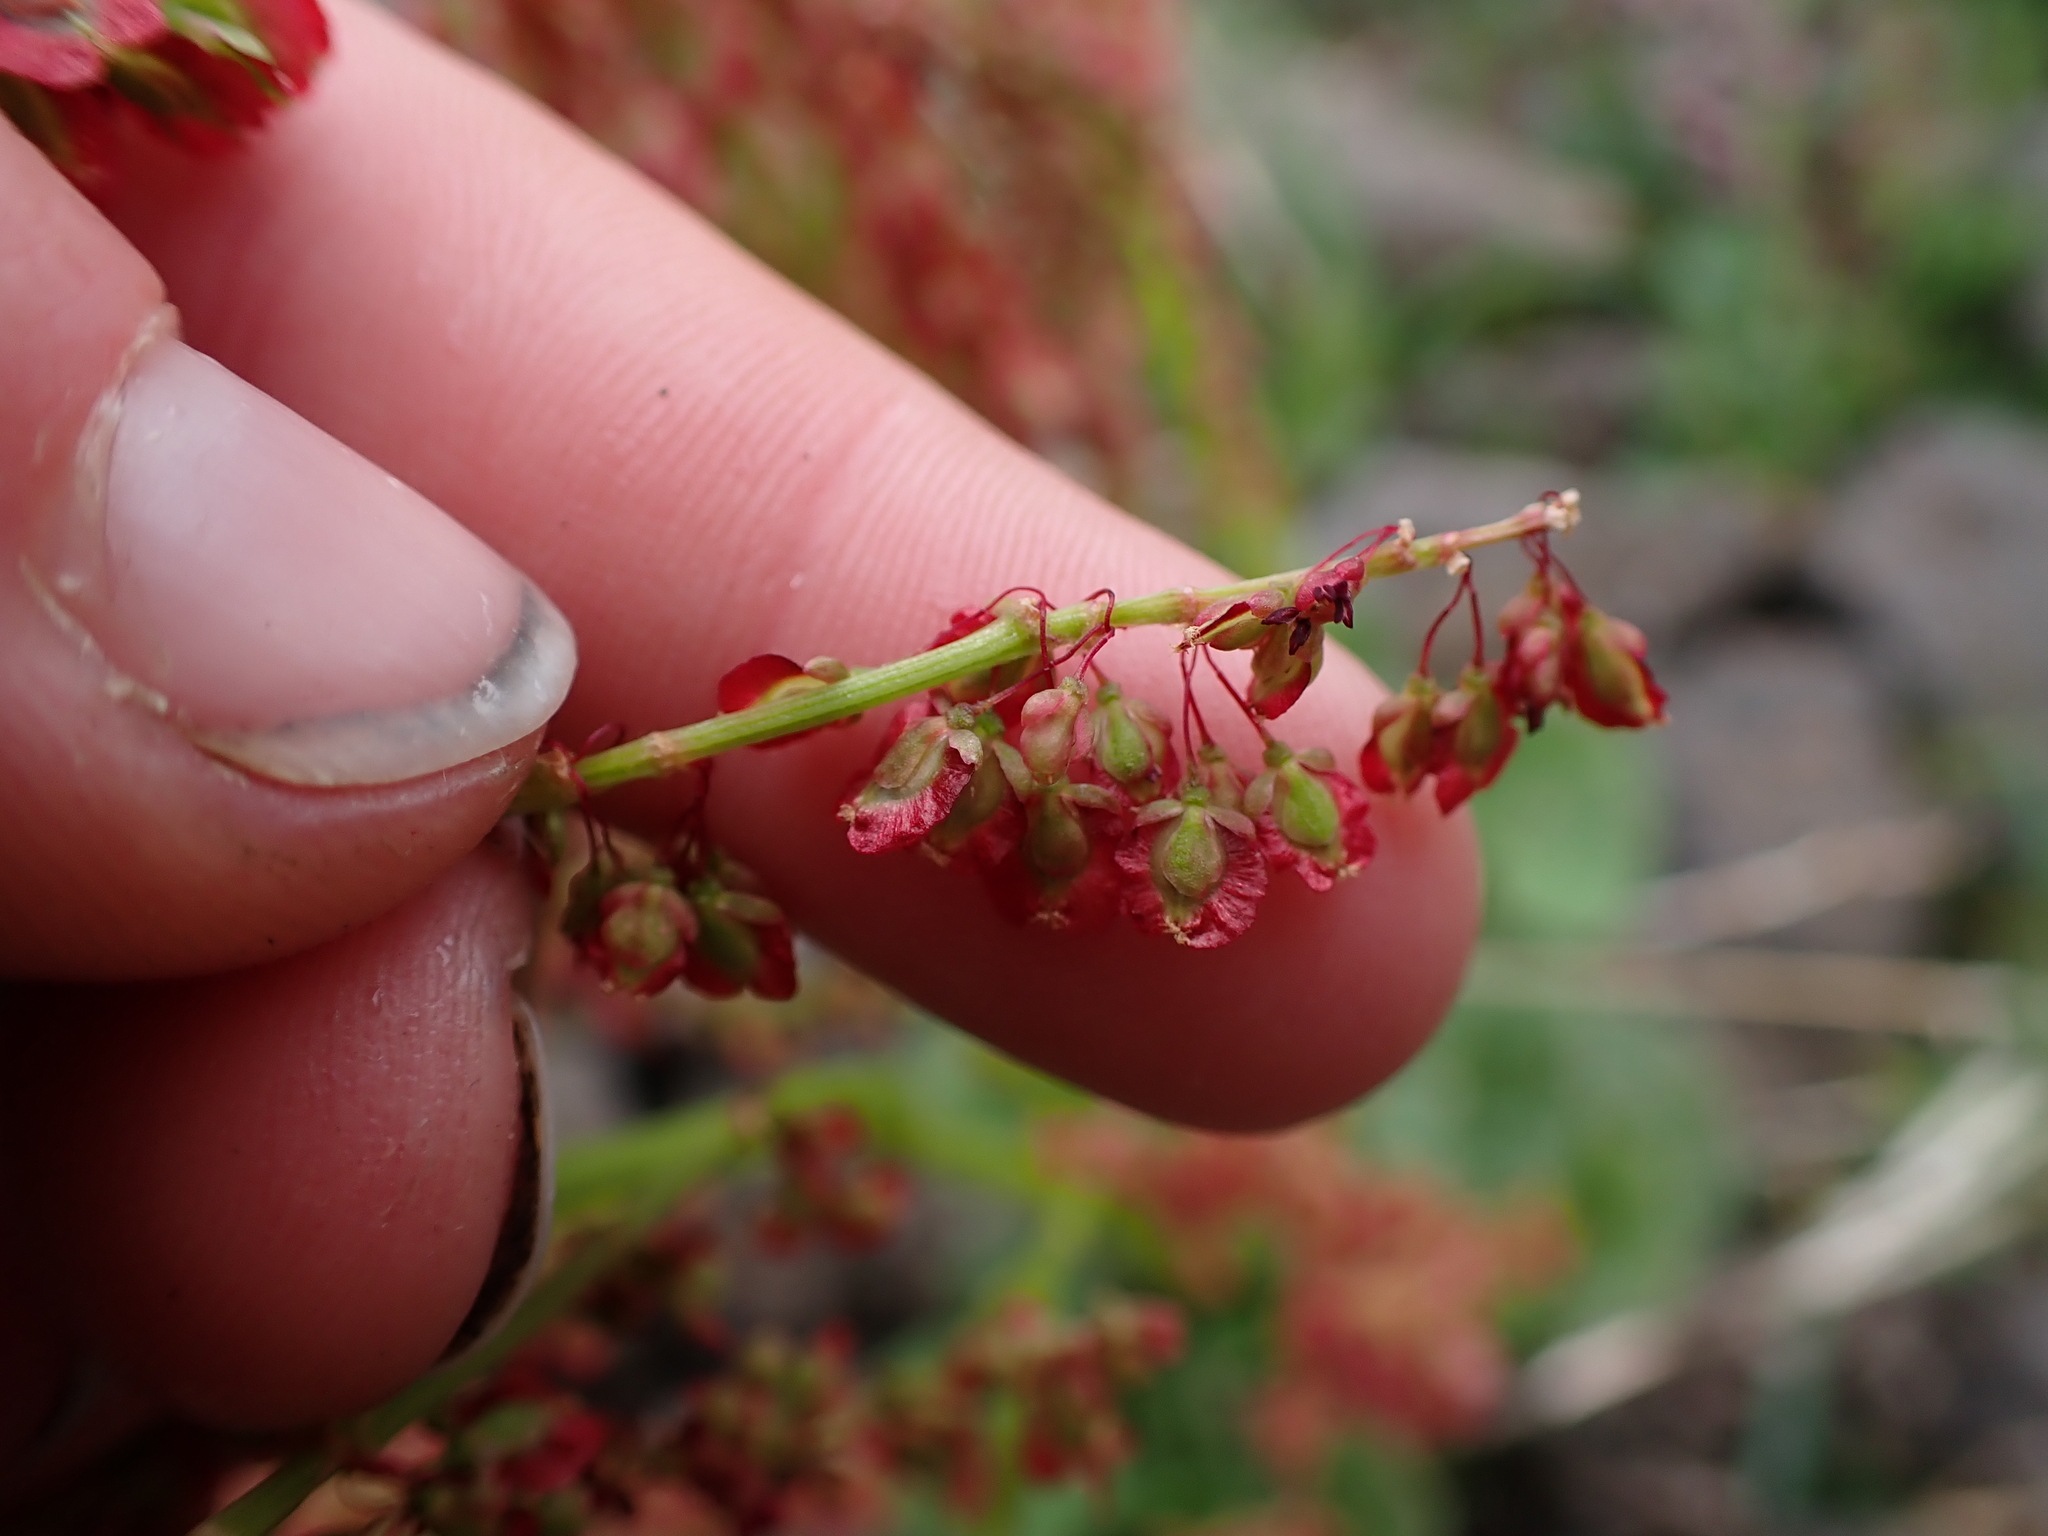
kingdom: Plantae
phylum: Tracheophyta
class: Magnoliopsida
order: Caryophyllales
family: Polygonaceae
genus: Oxyria
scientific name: Oxyria digyna
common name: Alpine mountain-sorrel
